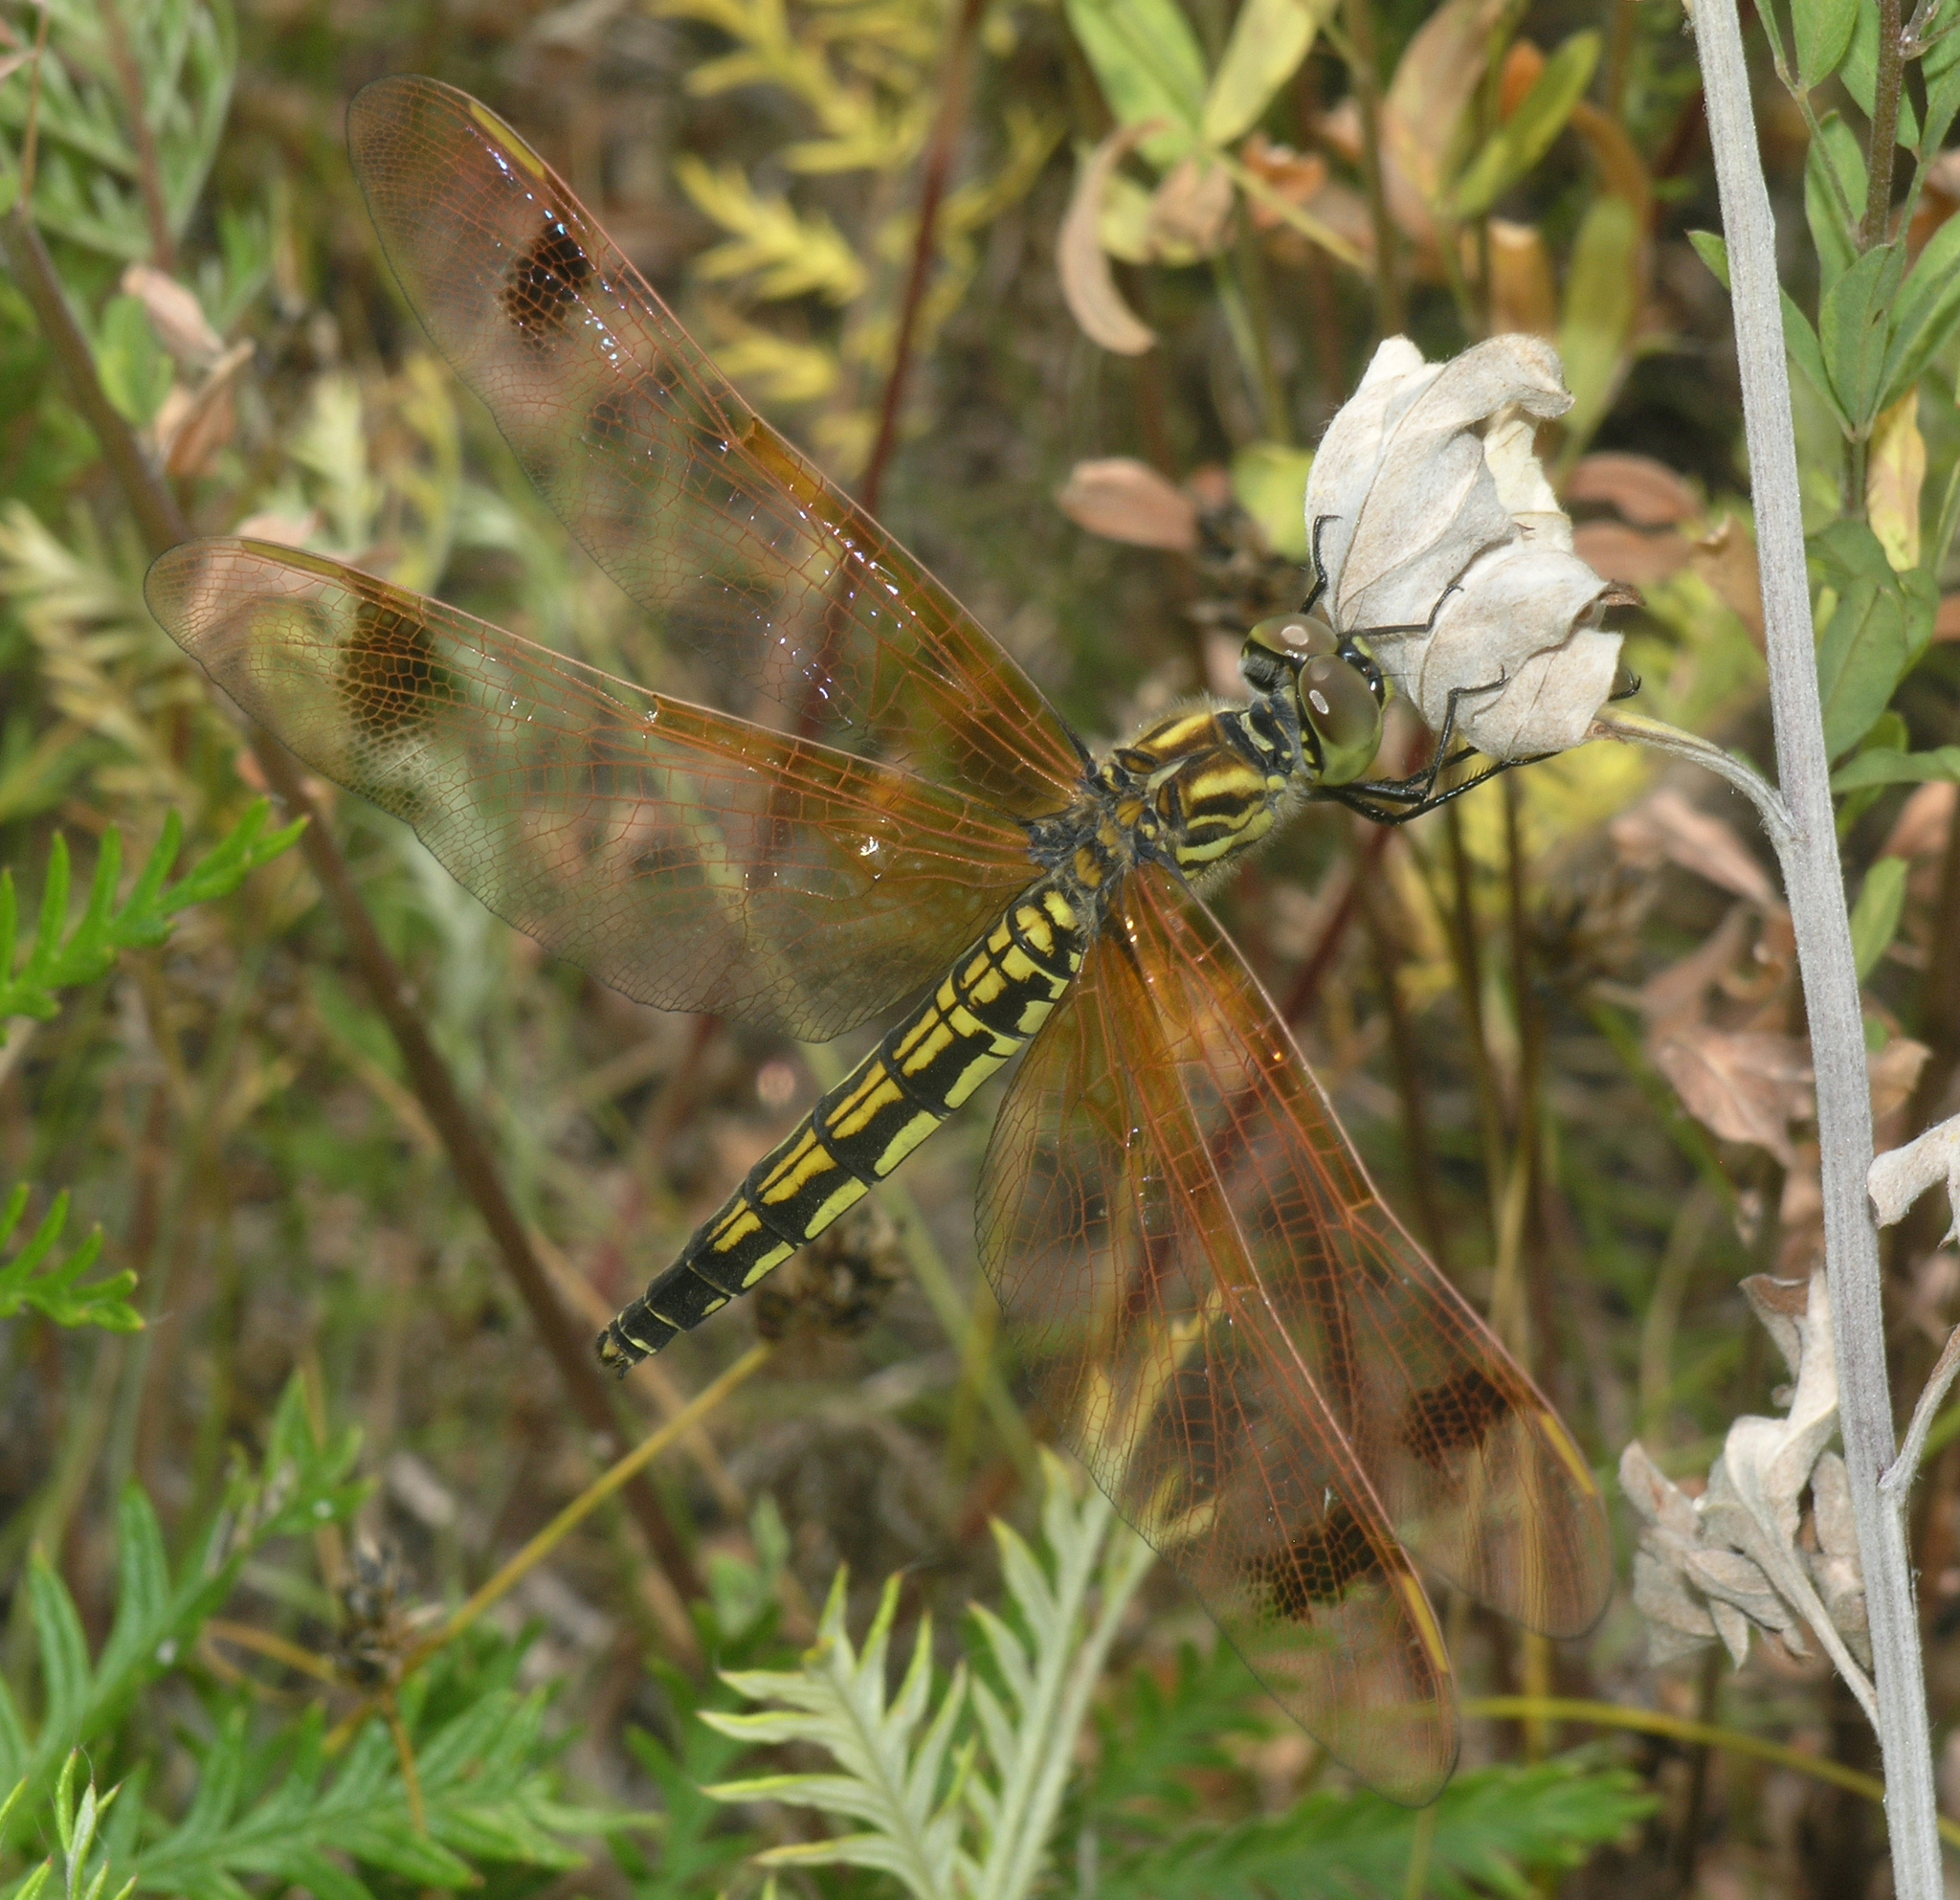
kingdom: Animalia
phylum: Arthropoda
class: Insecta
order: Odonata
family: Libellulidae
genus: Deielia
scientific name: Deielia phaon
